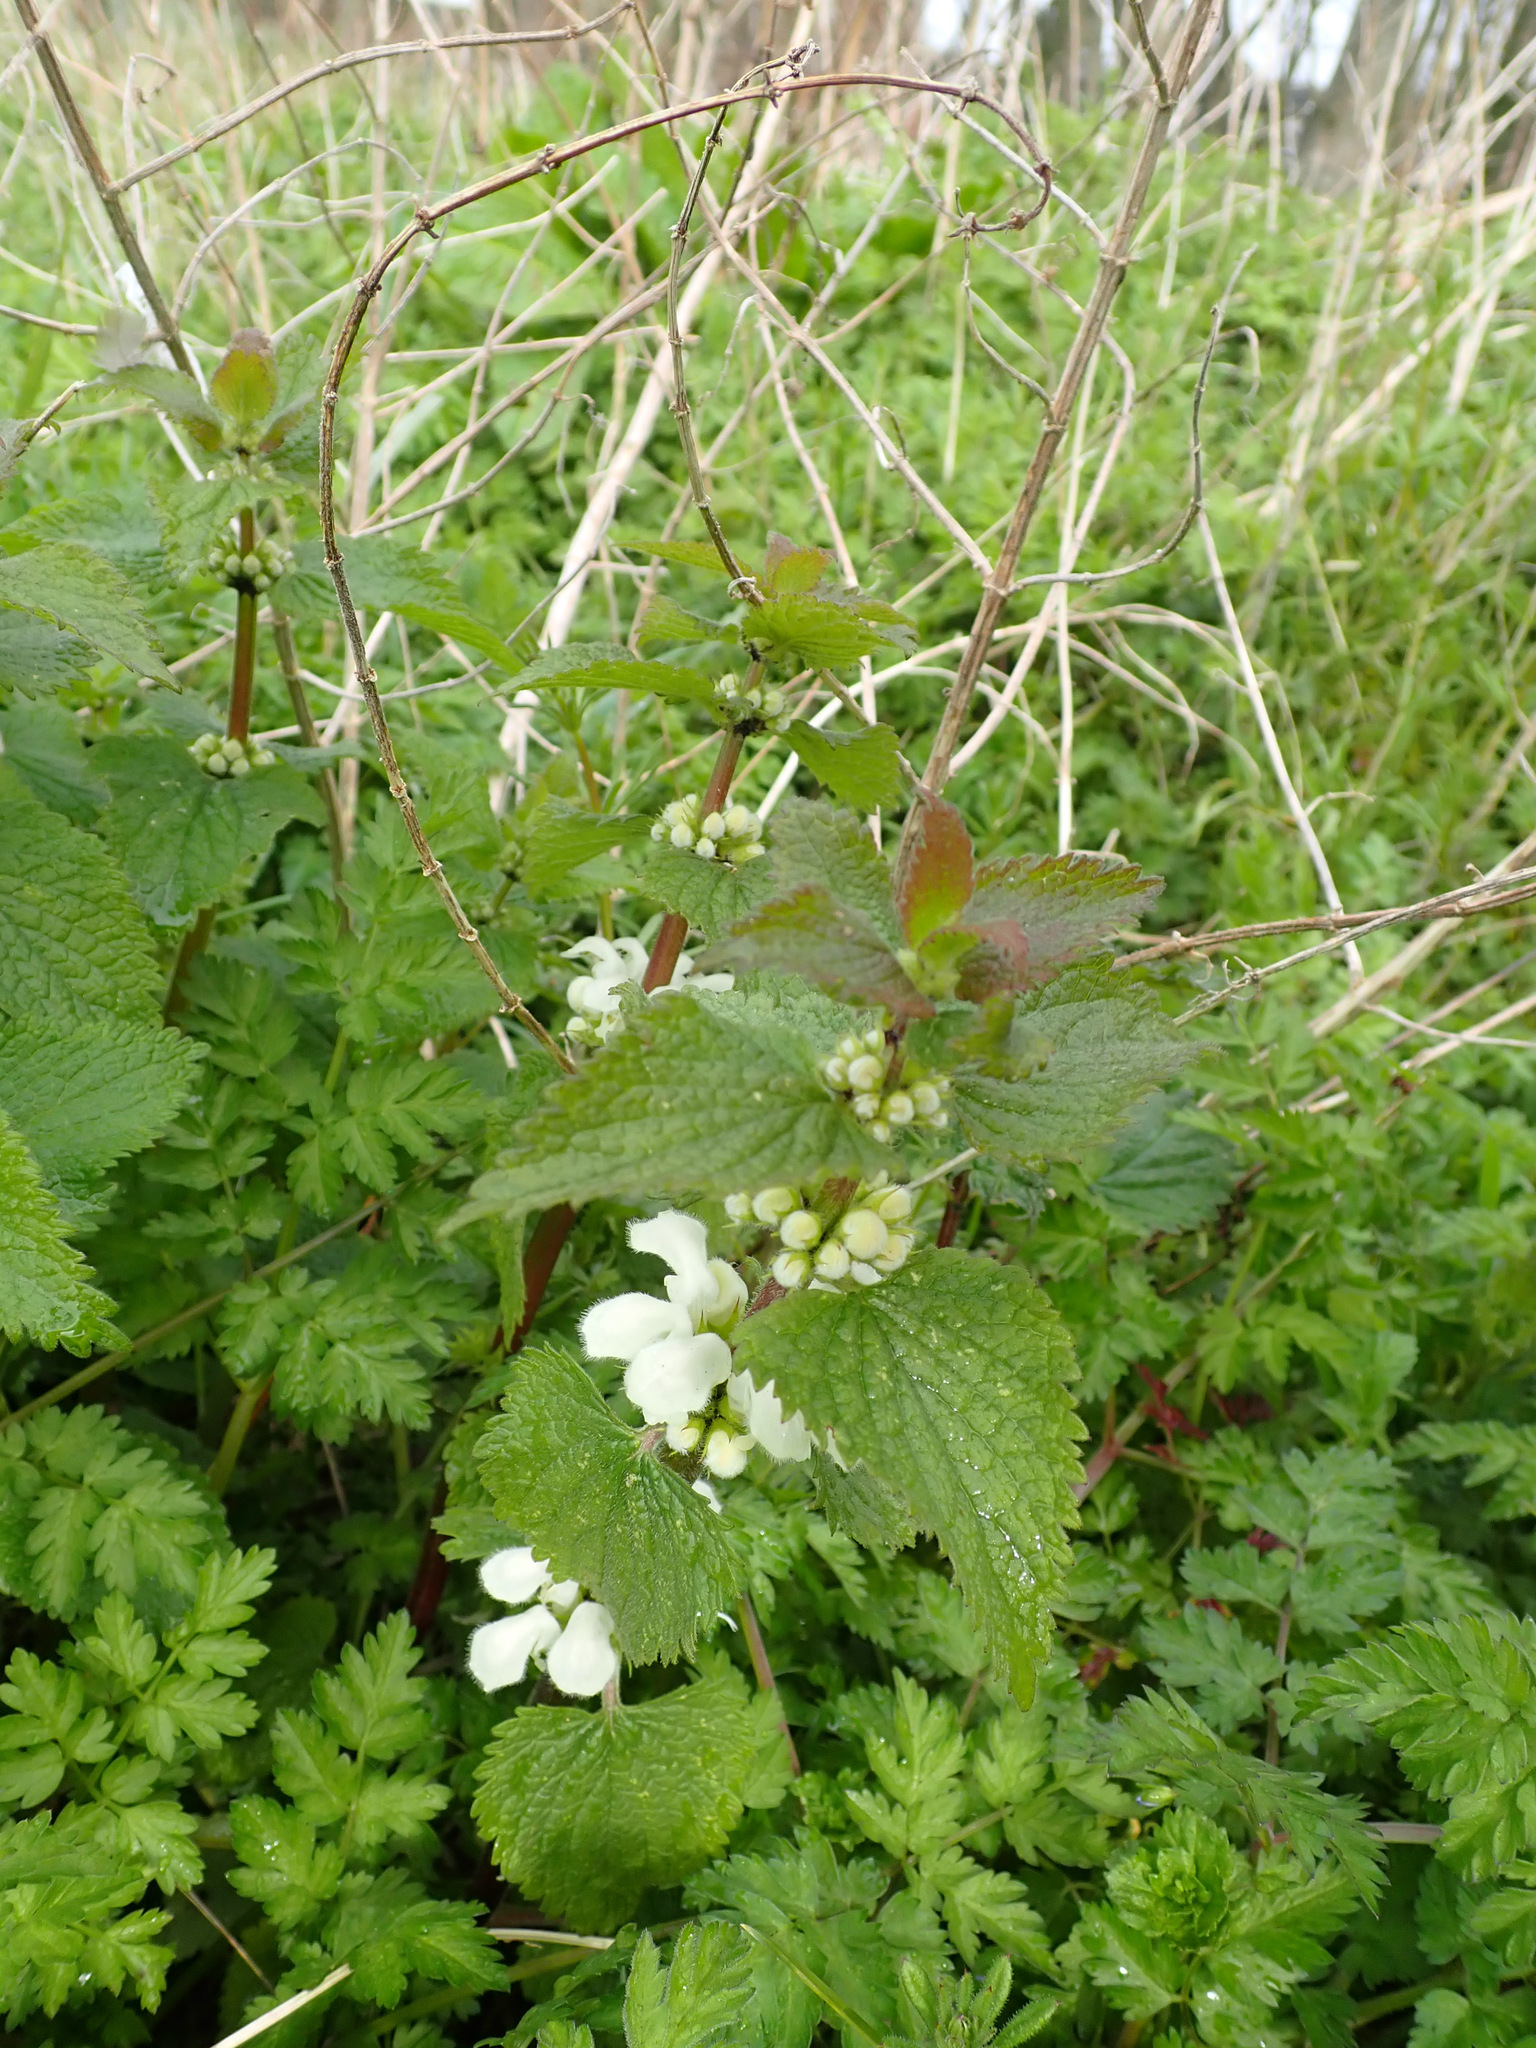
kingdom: Plantae
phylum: Tracheophyta
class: Magnoliopsida
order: Lamiales
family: Lamiaceae
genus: Lamium
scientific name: Lamium album
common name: White dead-nettle
